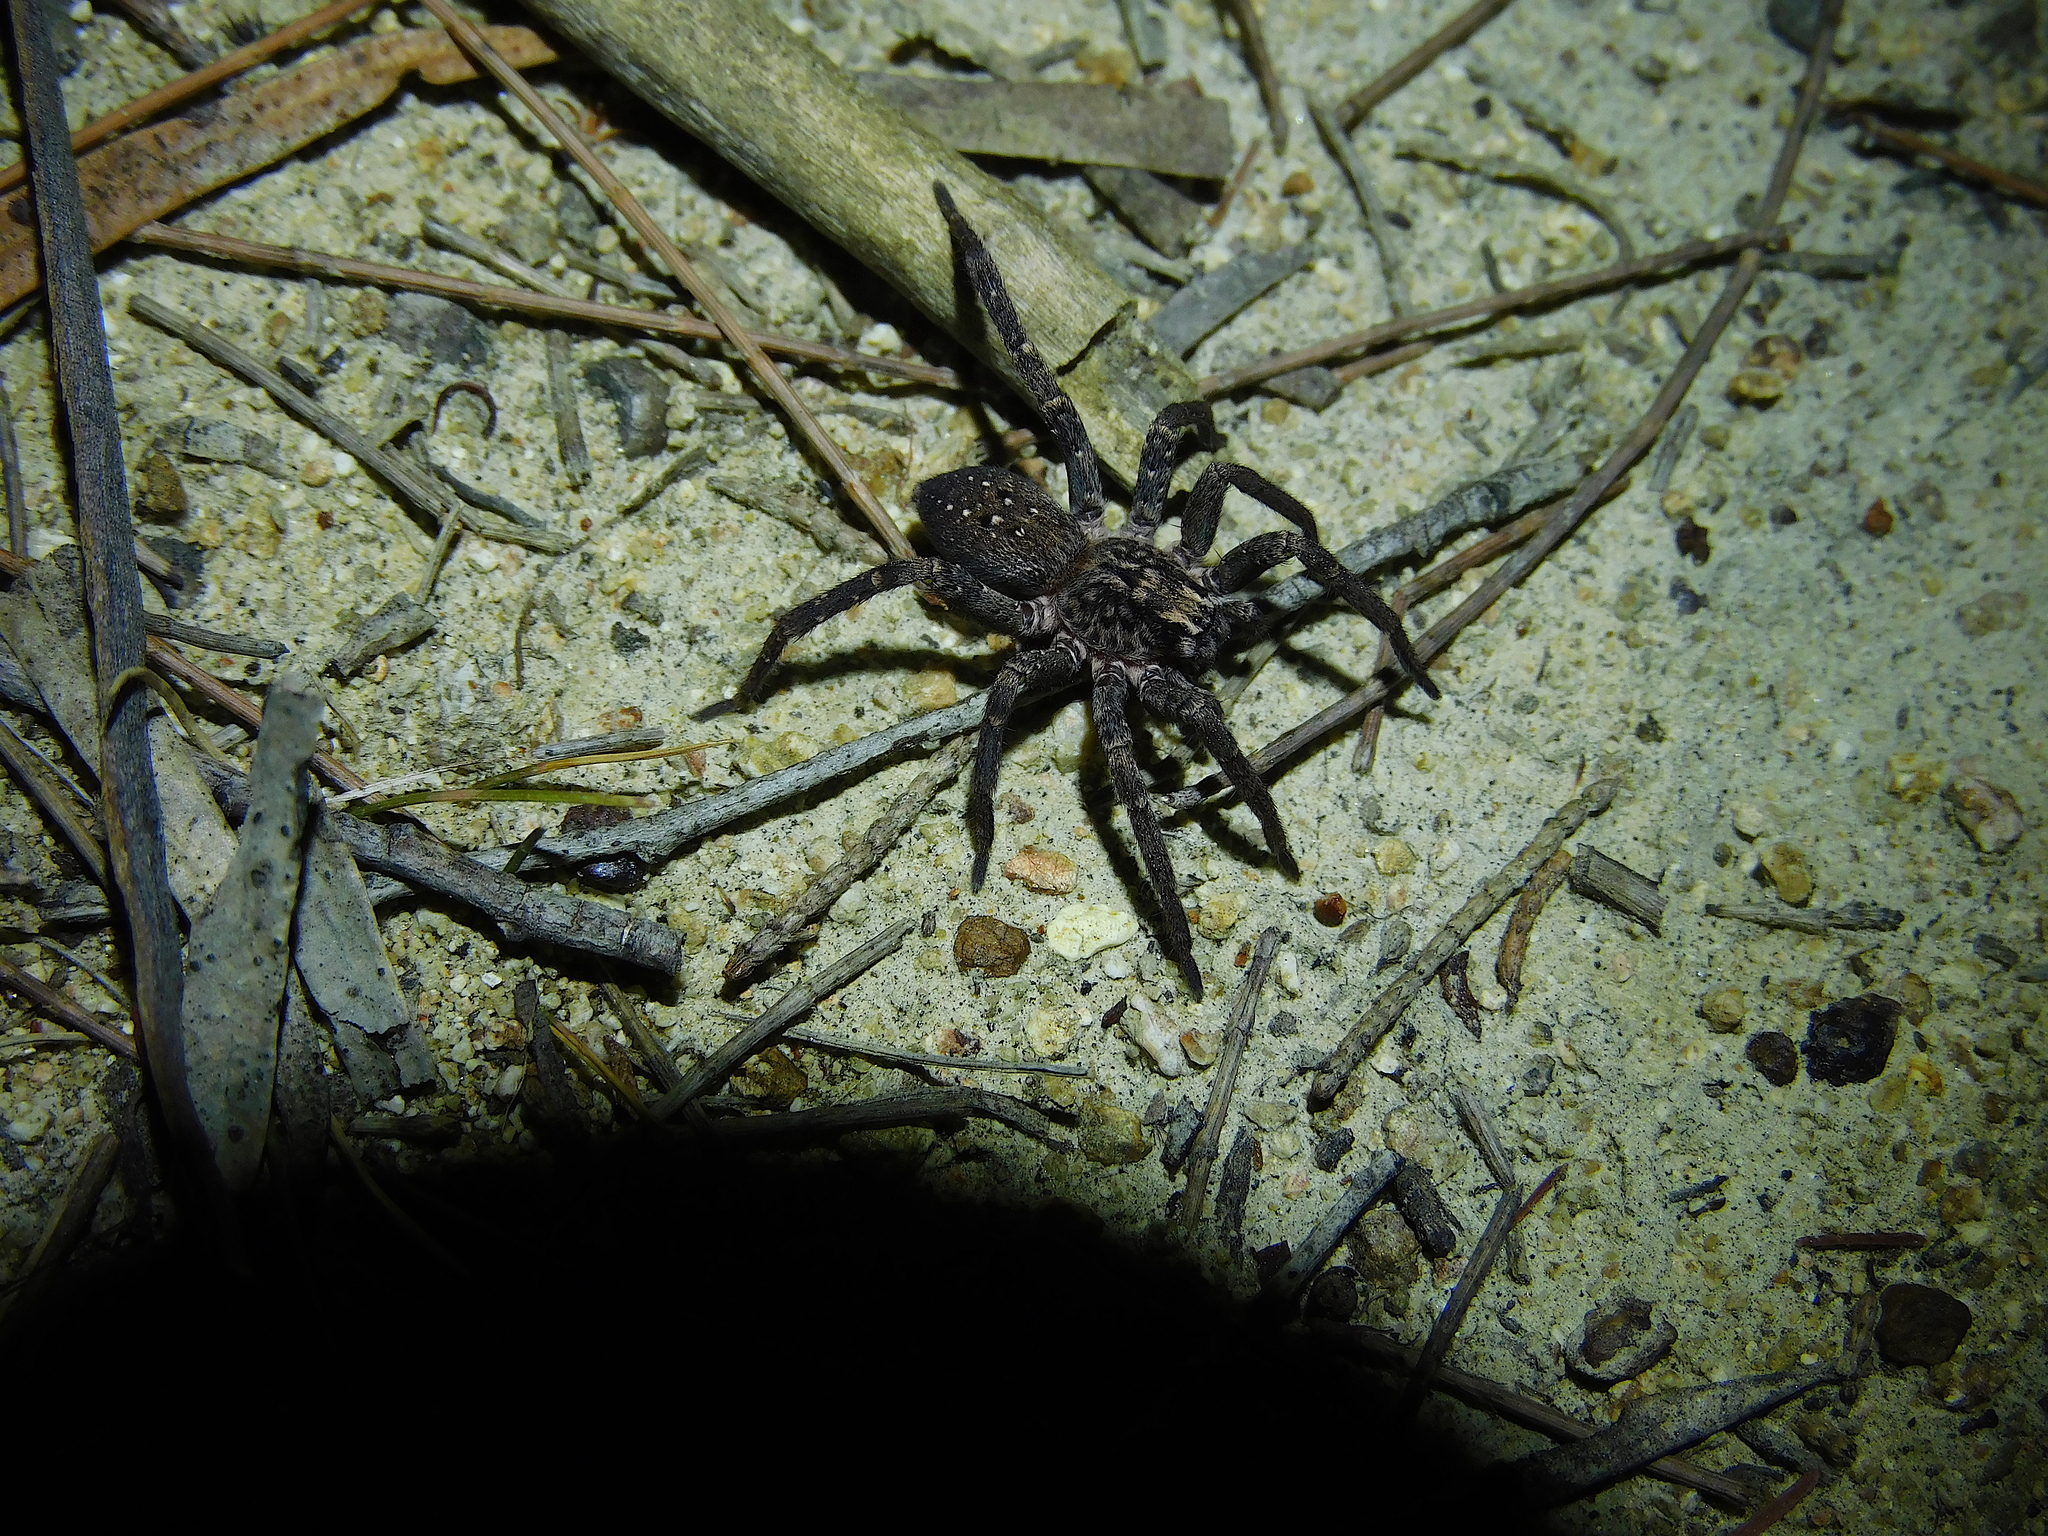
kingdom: Animalia
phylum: Arthropoda
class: Arachnida
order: Araneae
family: Miturgidae
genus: Mituliodon
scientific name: Mituliodon tarantulinus
